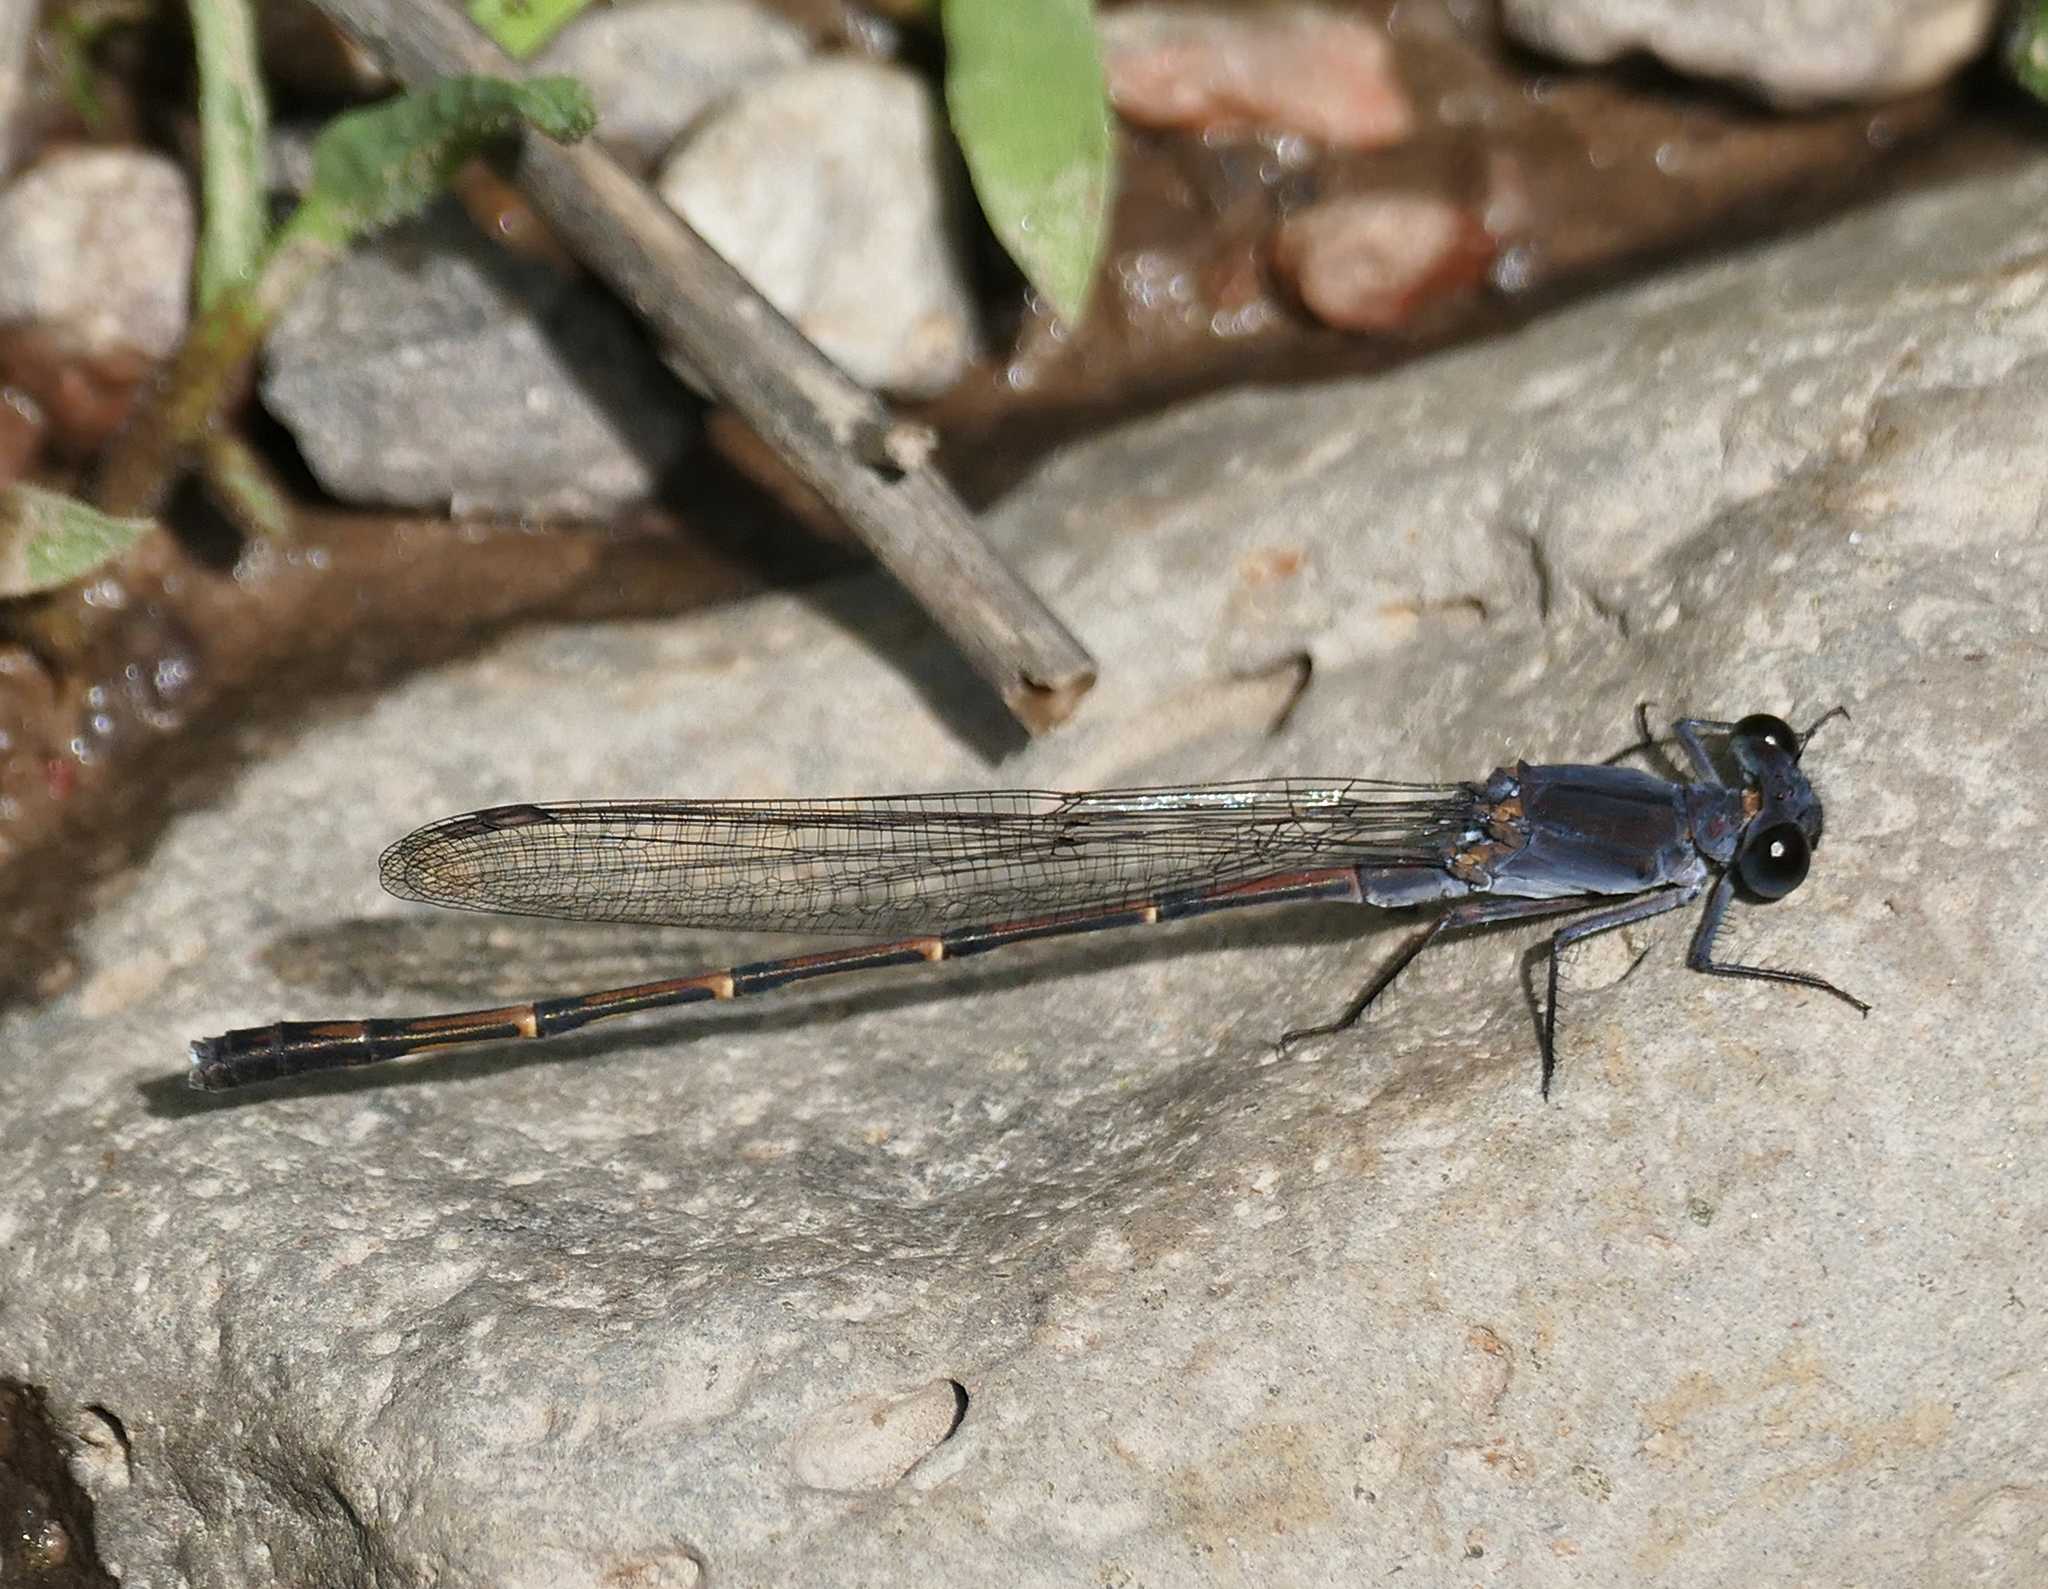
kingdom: Animalia
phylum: Arthropoda
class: Insecta
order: Odonata
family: Coenagrionidae
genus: Argia
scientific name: Argia lugens
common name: Sooty dancer
